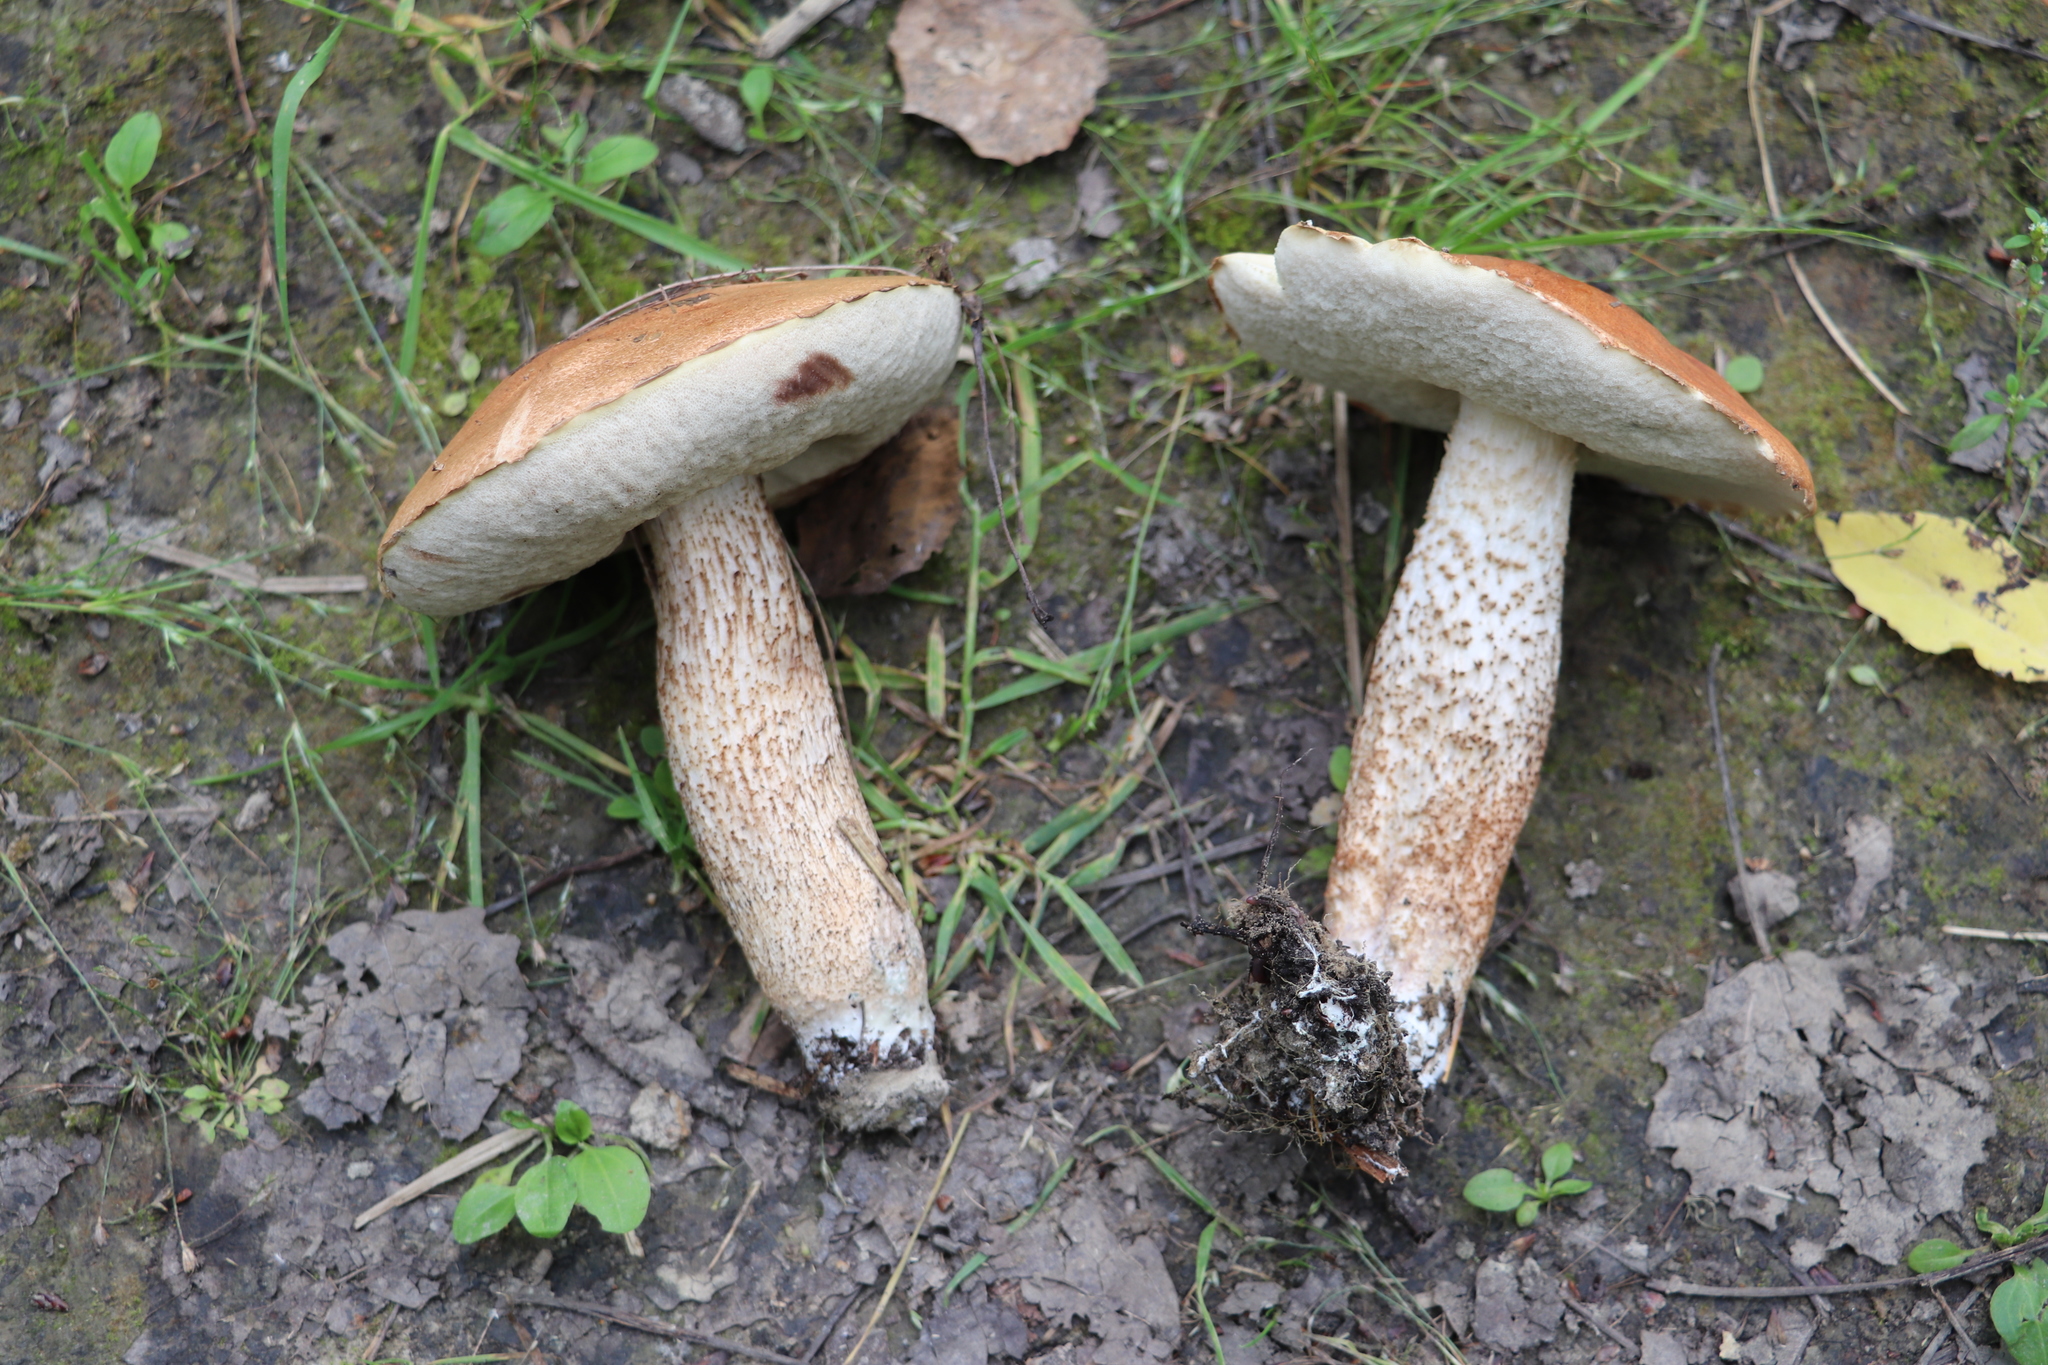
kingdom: Fungi
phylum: Basidiomycota
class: Agaricomycetes
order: Boletales
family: Boletaceae
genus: Leccinum
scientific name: Leccinum aurantiacum
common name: Orange bolete
